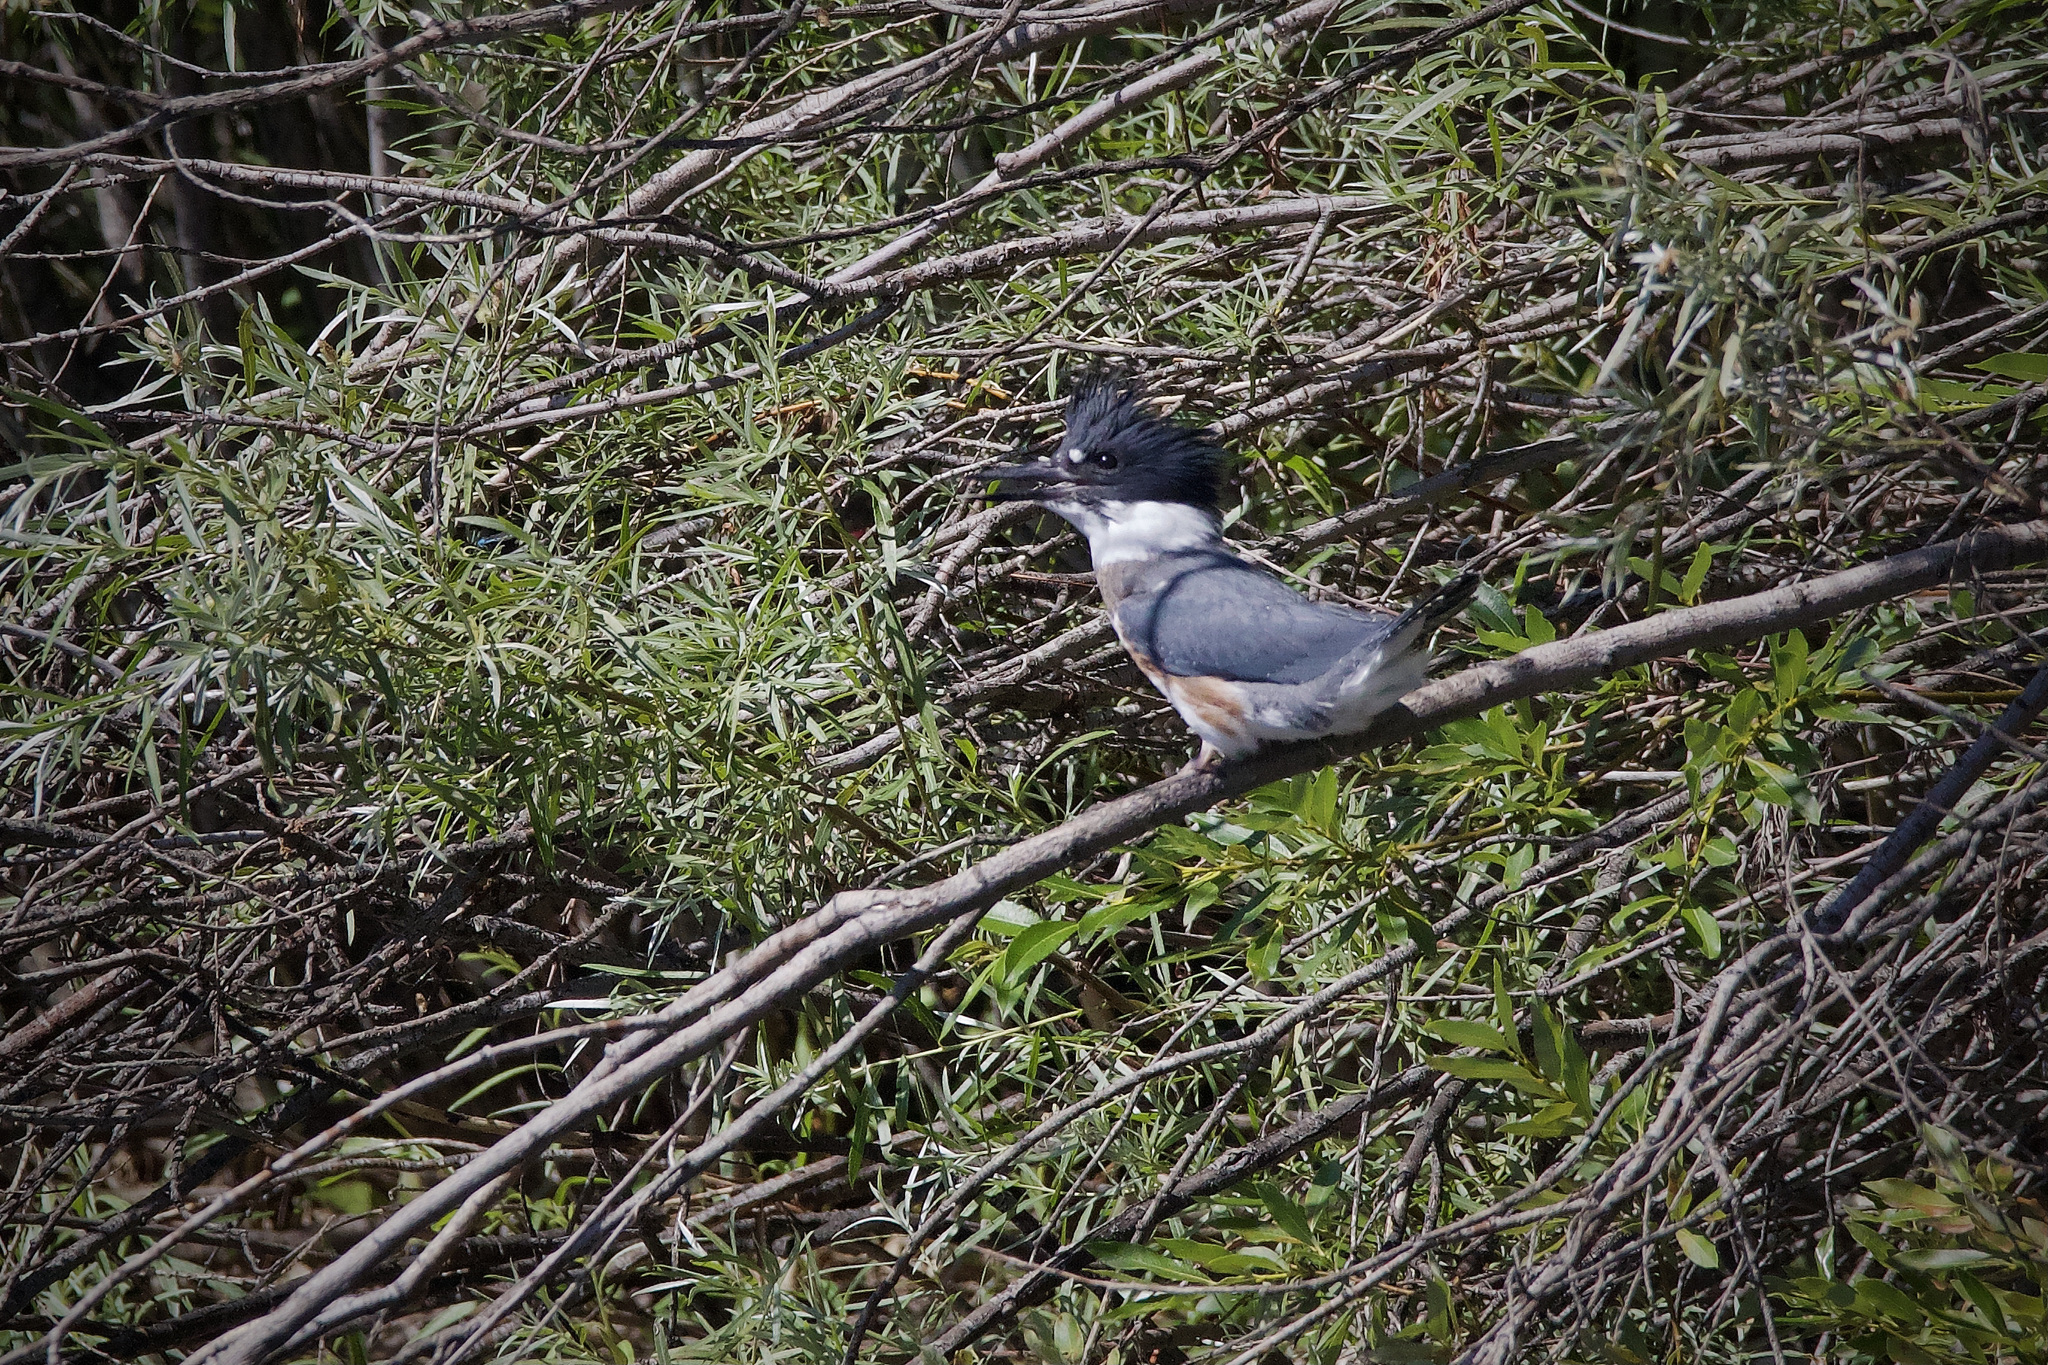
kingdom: Animalia
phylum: Chordata
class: Aves
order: Coraciiformes
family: Alcedinidae
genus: Megaceryle
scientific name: Megaceryle alcyon
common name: Belted kingfisher
